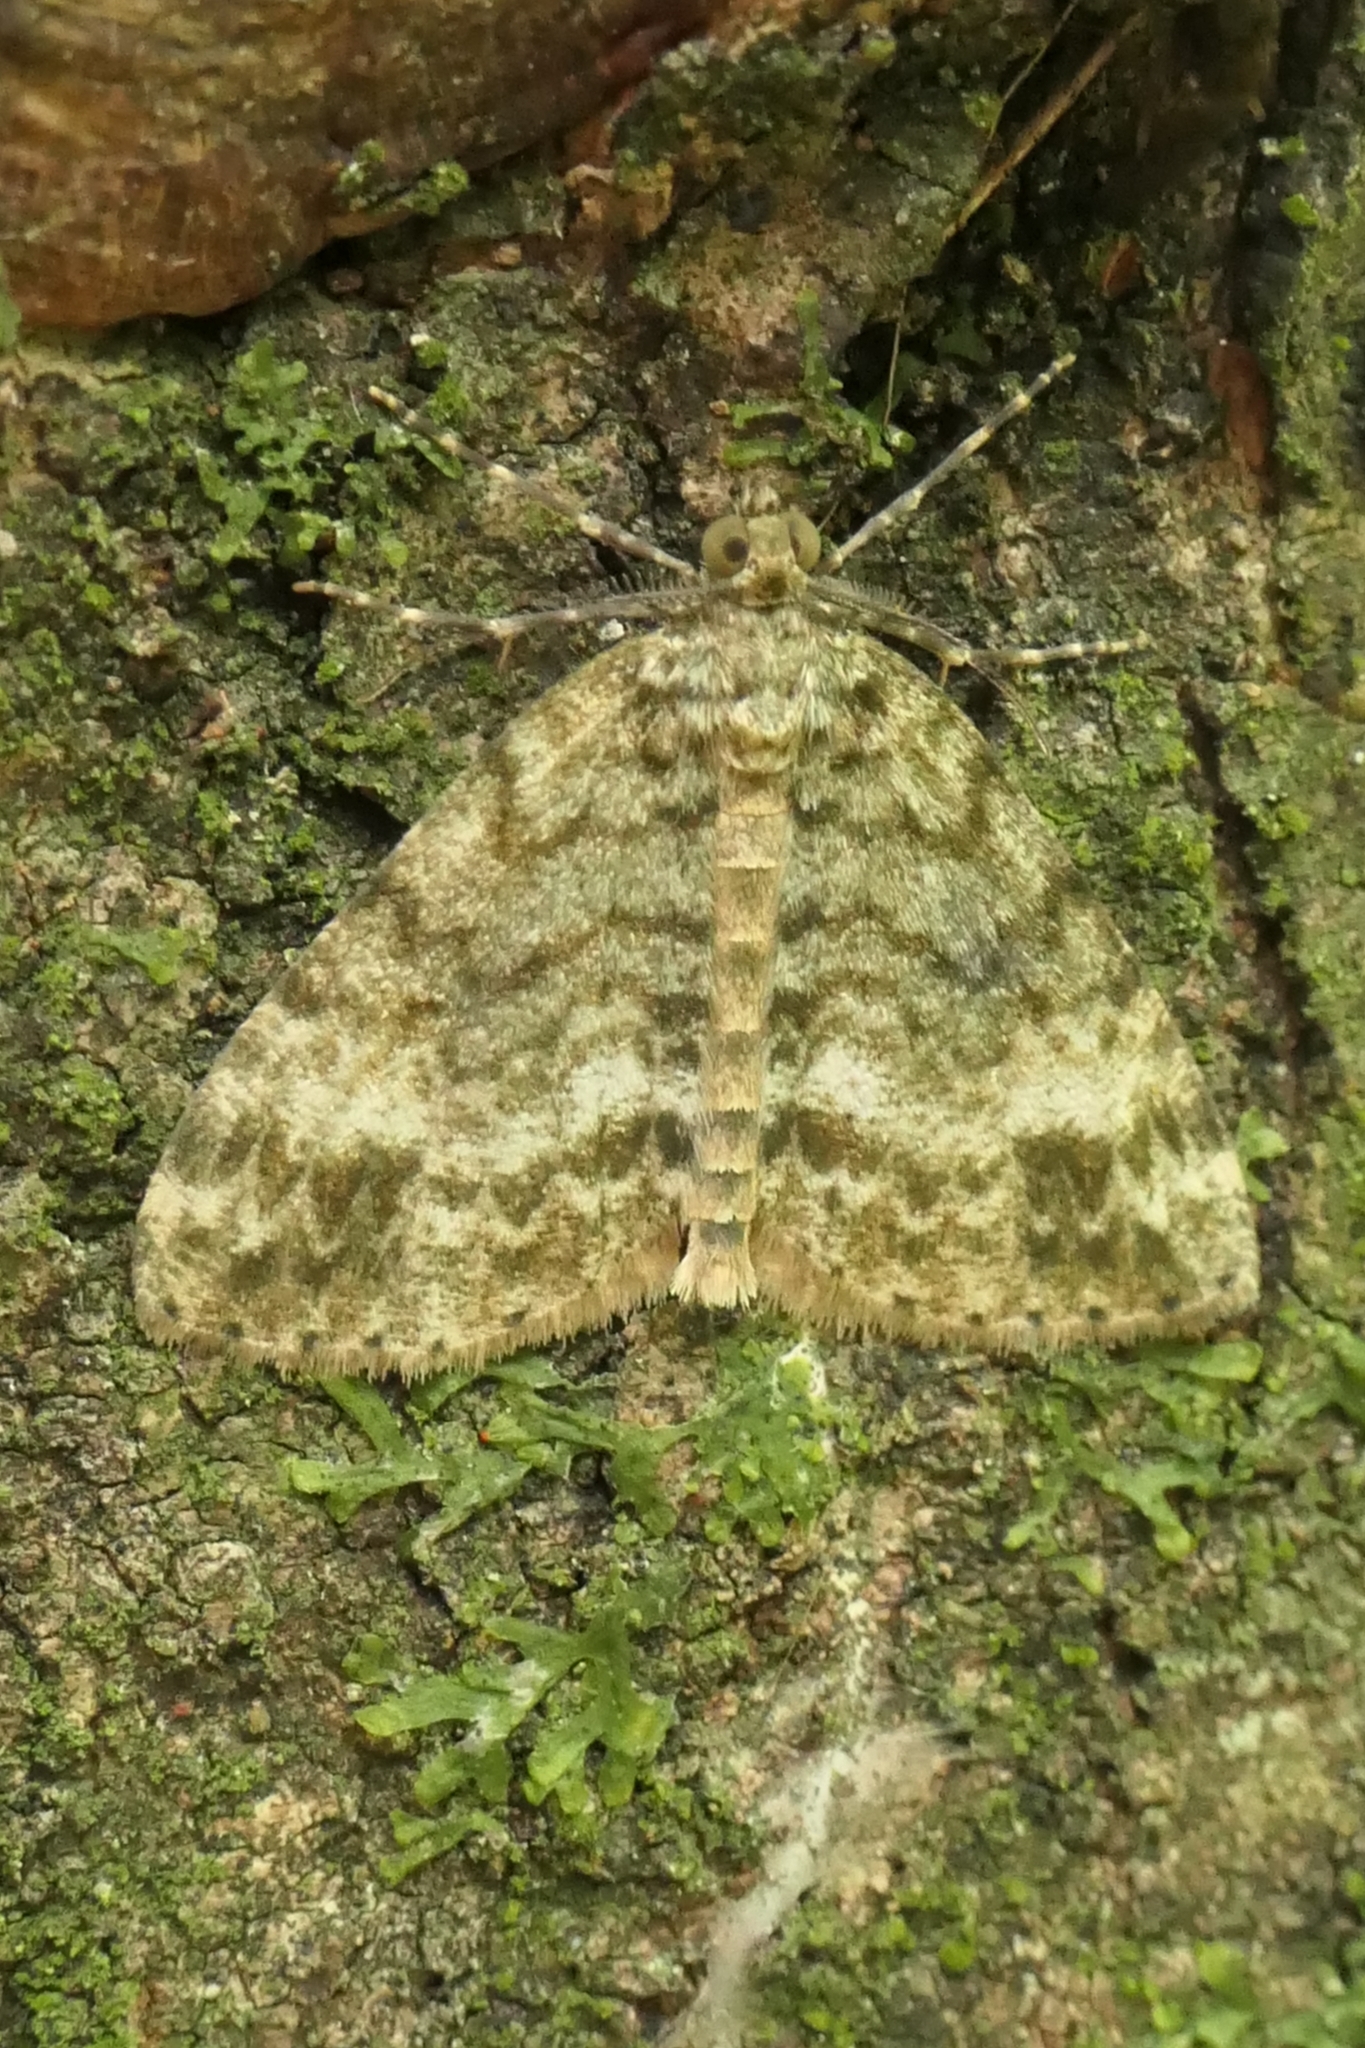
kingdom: Animalia
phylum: Arthropoda
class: Insecta
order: Lepidoptera
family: Geometridae
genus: Pseudocoremia
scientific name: Pseudocoremia indistincta
